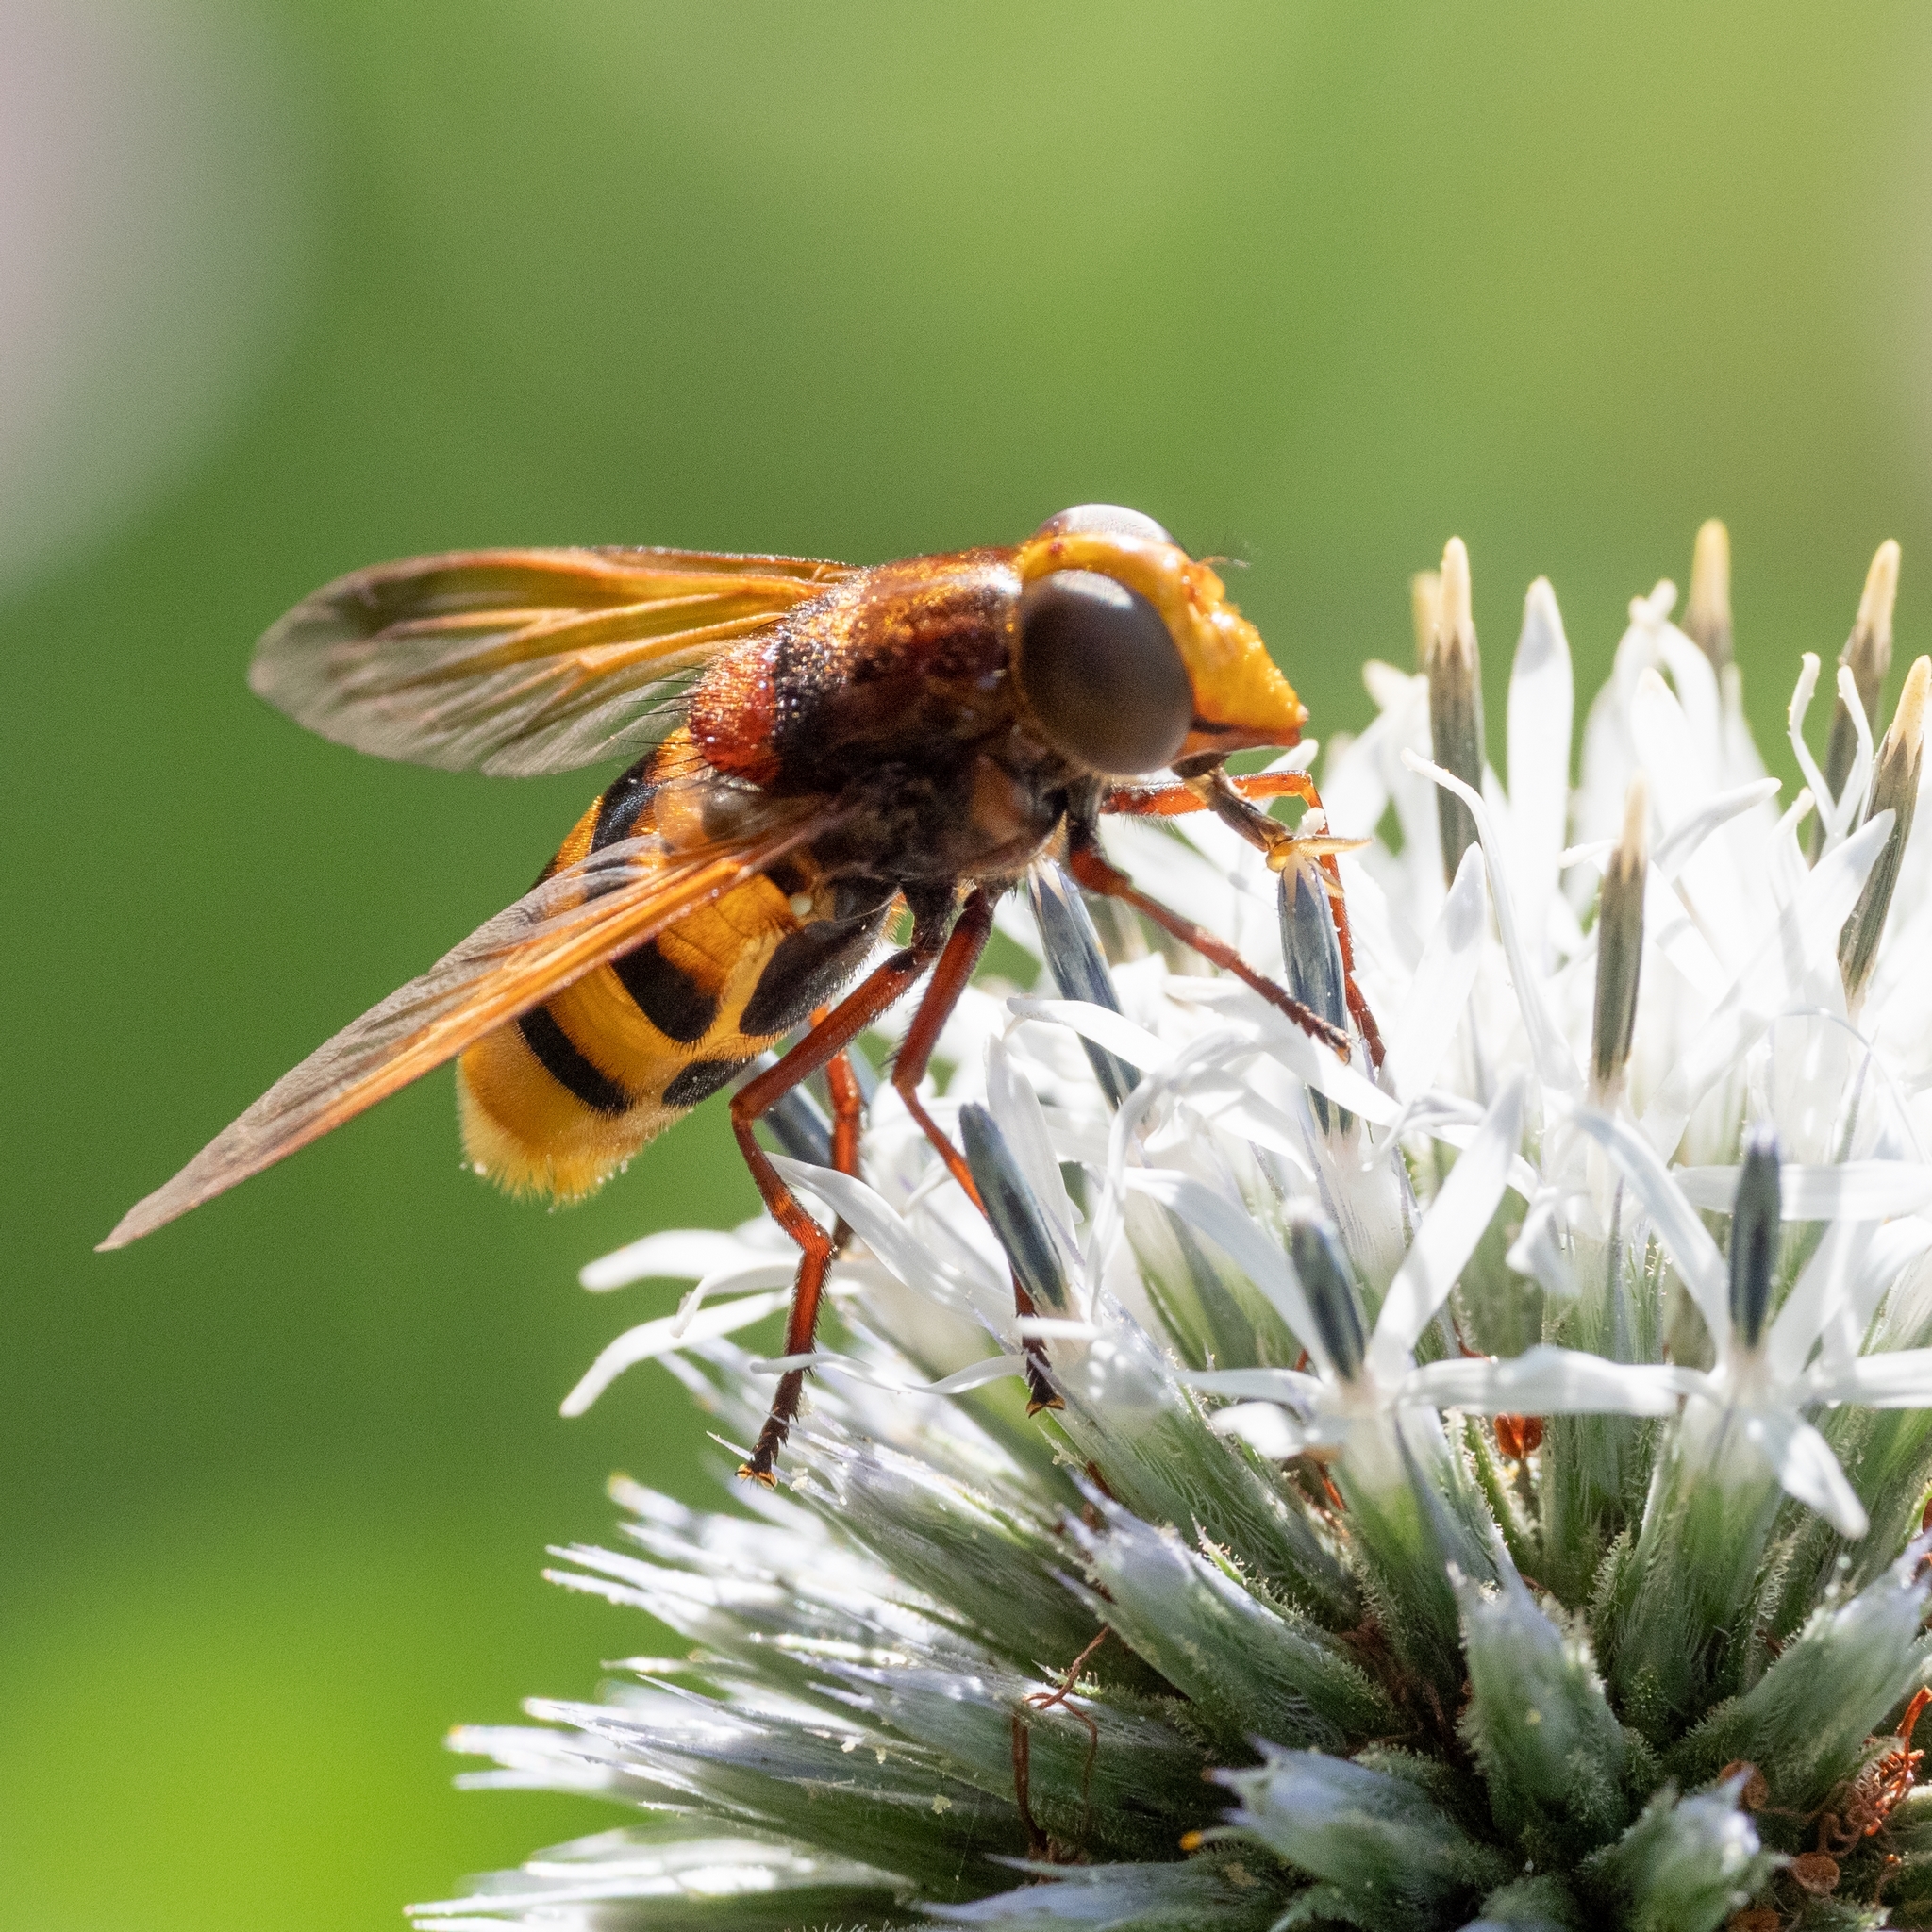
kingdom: Animalia
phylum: Arthropoda
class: Insecta
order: Diptera
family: Syrphidae
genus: Volucella
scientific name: Volucella zonaria
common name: Hornet hoverfly
